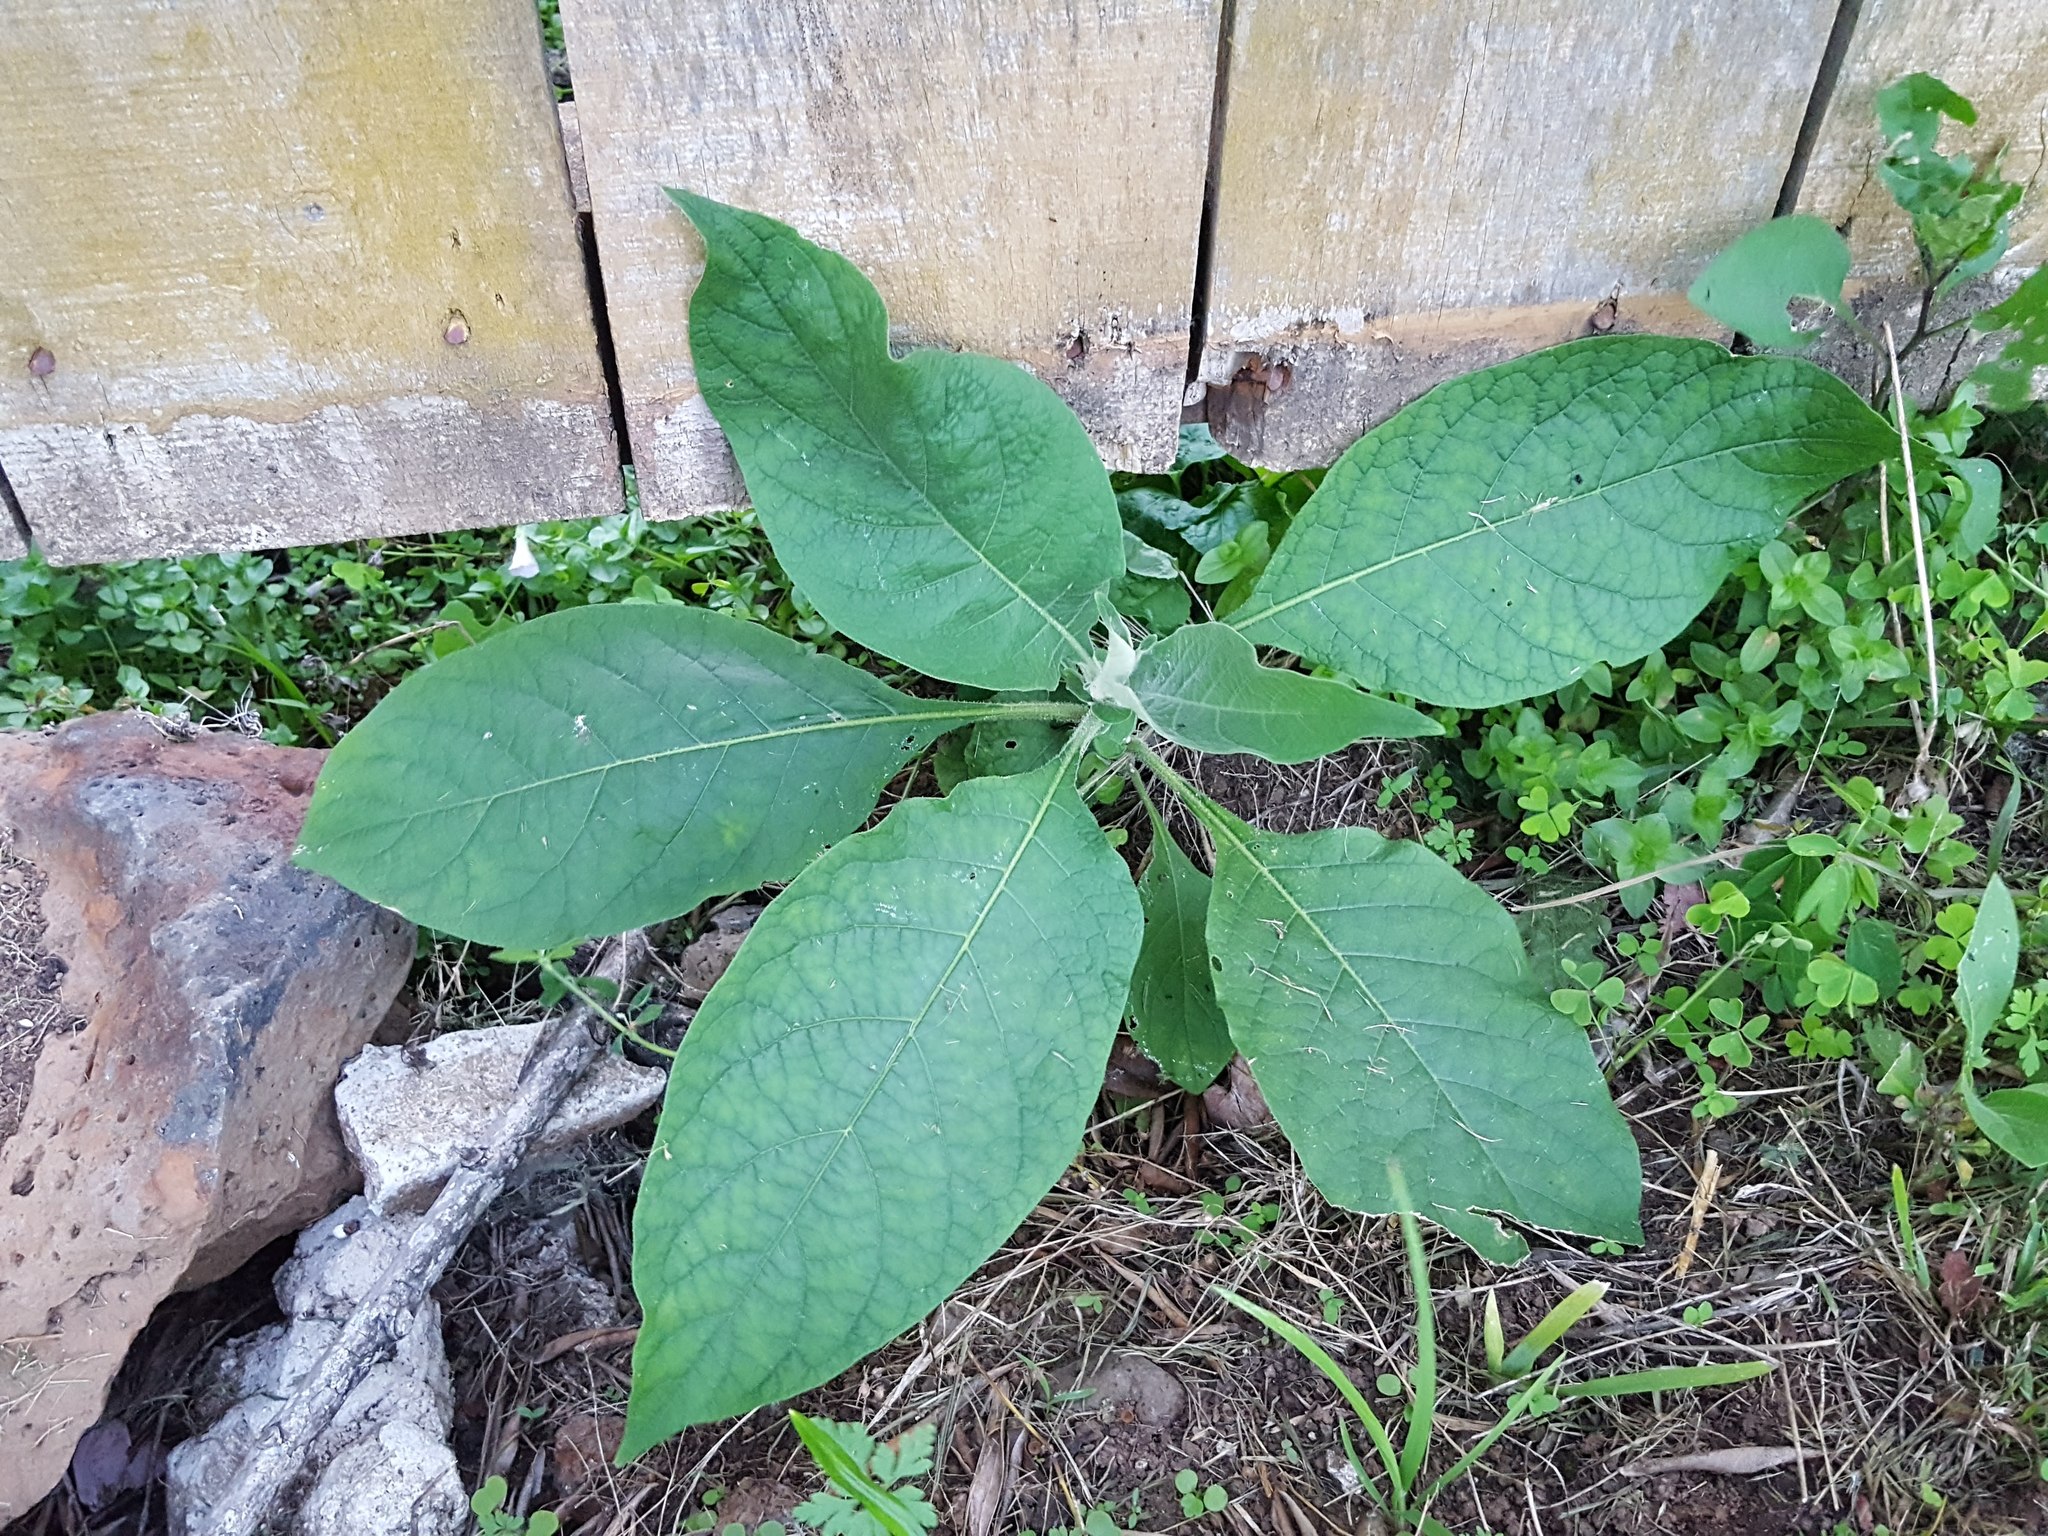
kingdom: Plantae
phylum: Tracheophyta
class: Magnoliopsida
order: Solanales
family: Solanaceae
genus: Solanum
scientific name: Solanum mauritianum
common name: Earleaf nightshade
